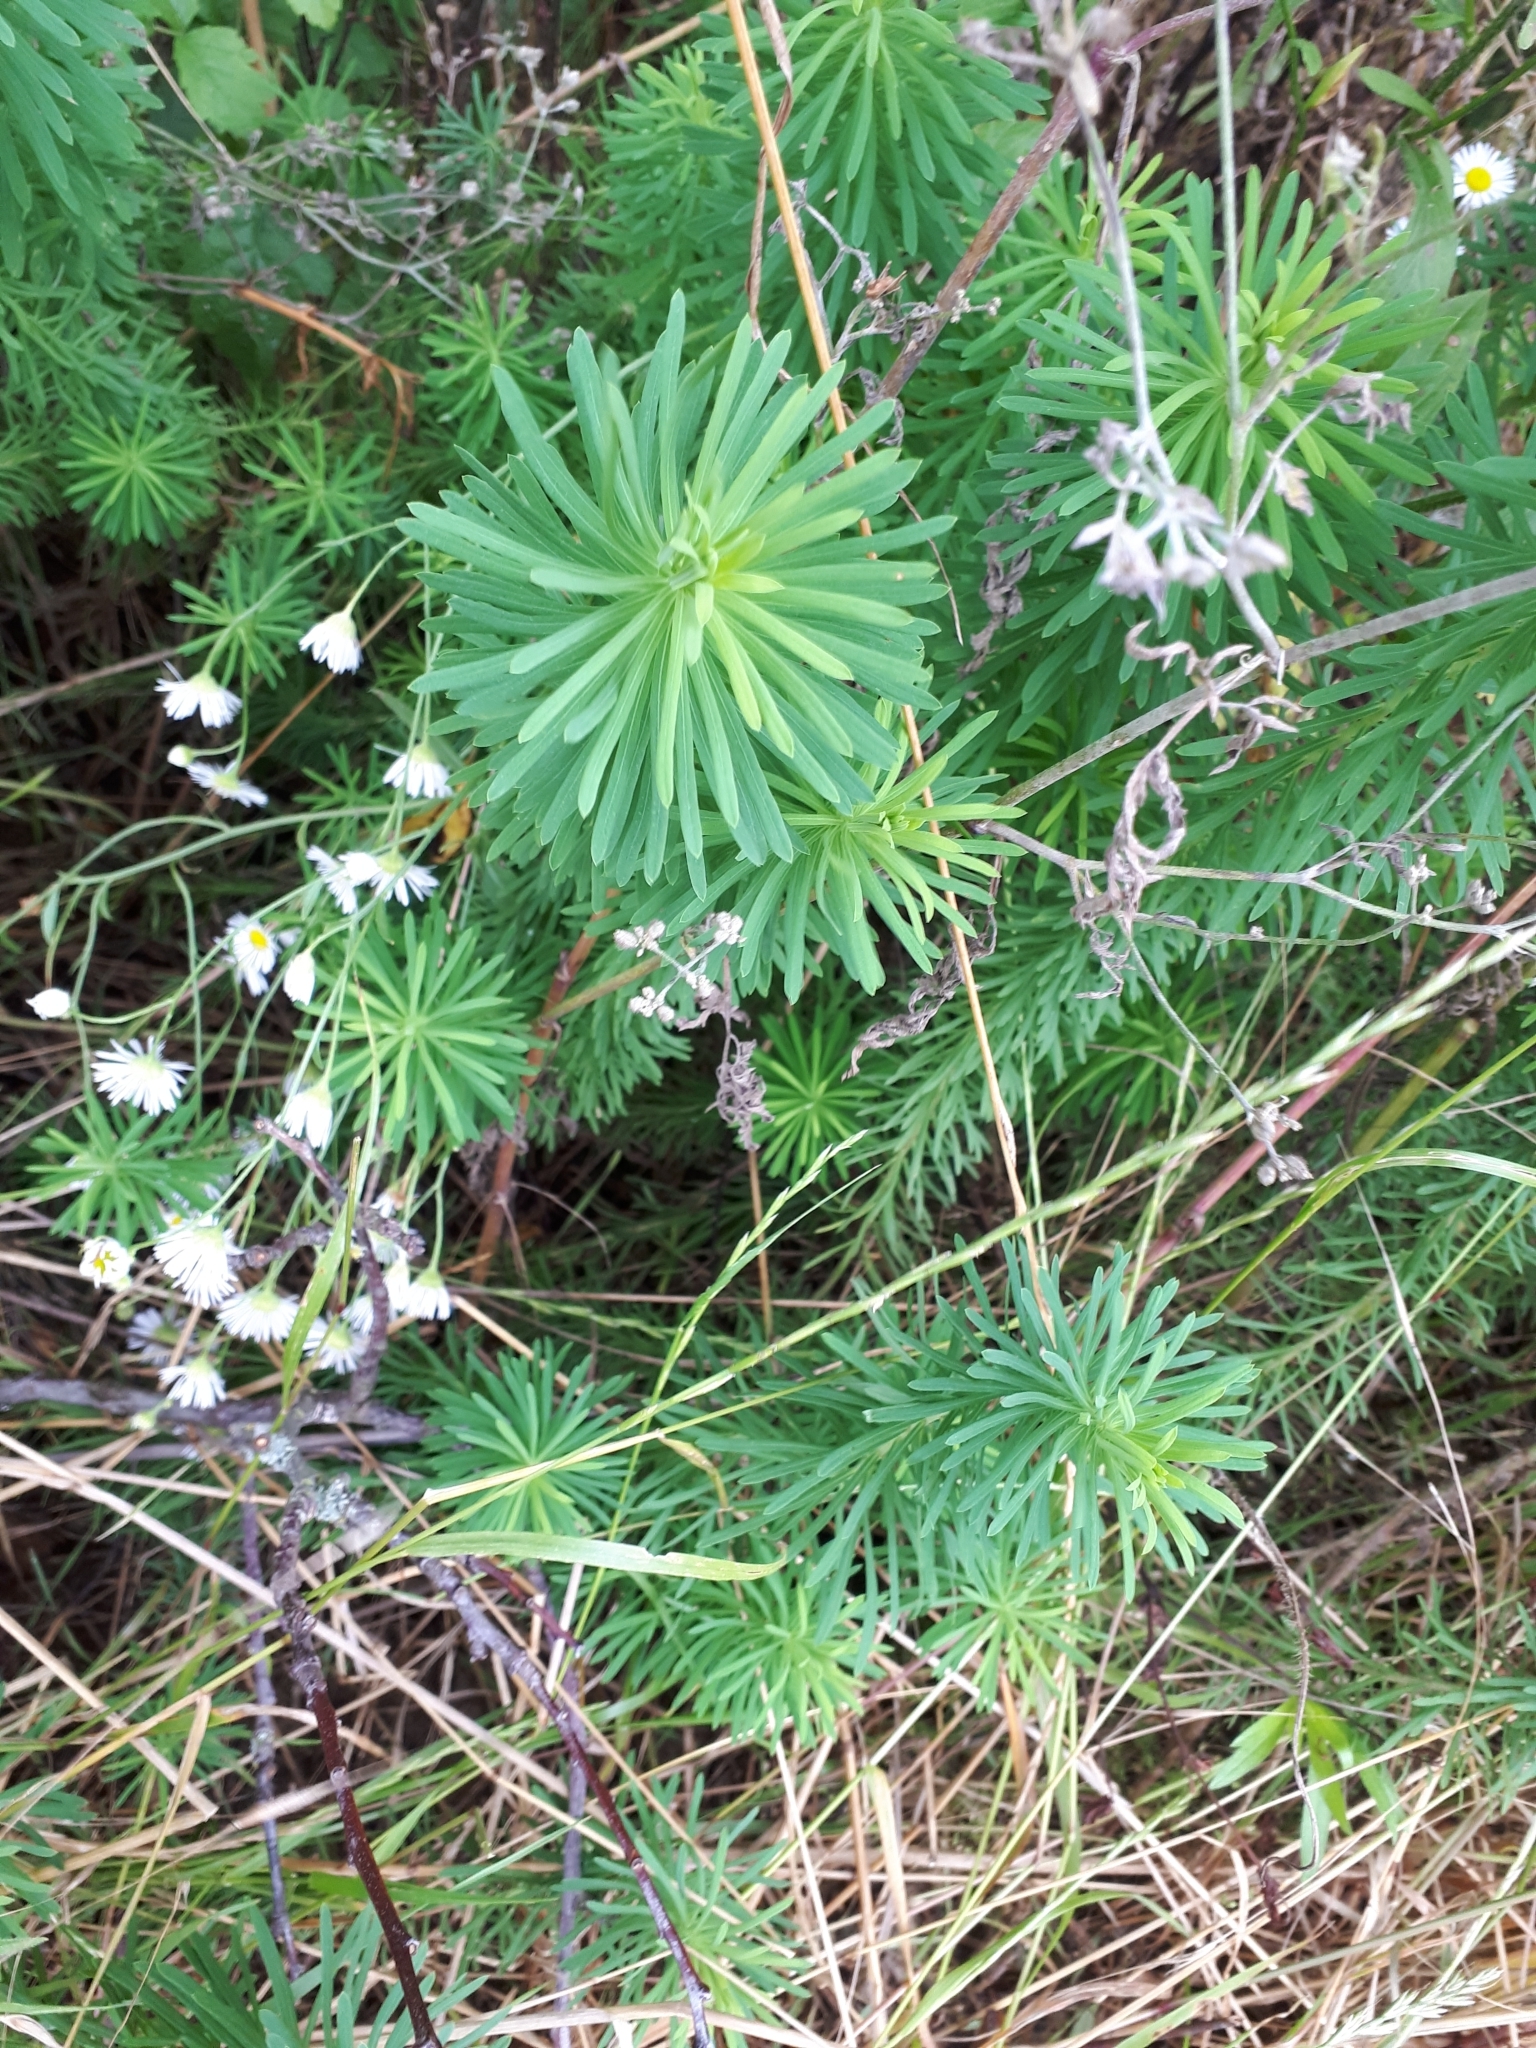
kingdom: Plantae
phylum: Tracheophyta
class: Magnoliopsida
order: Malpighiales
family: Euphorbiaceae
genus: Euphorbia
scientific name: Euphorbia cyparissias
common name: Cypress spurge
